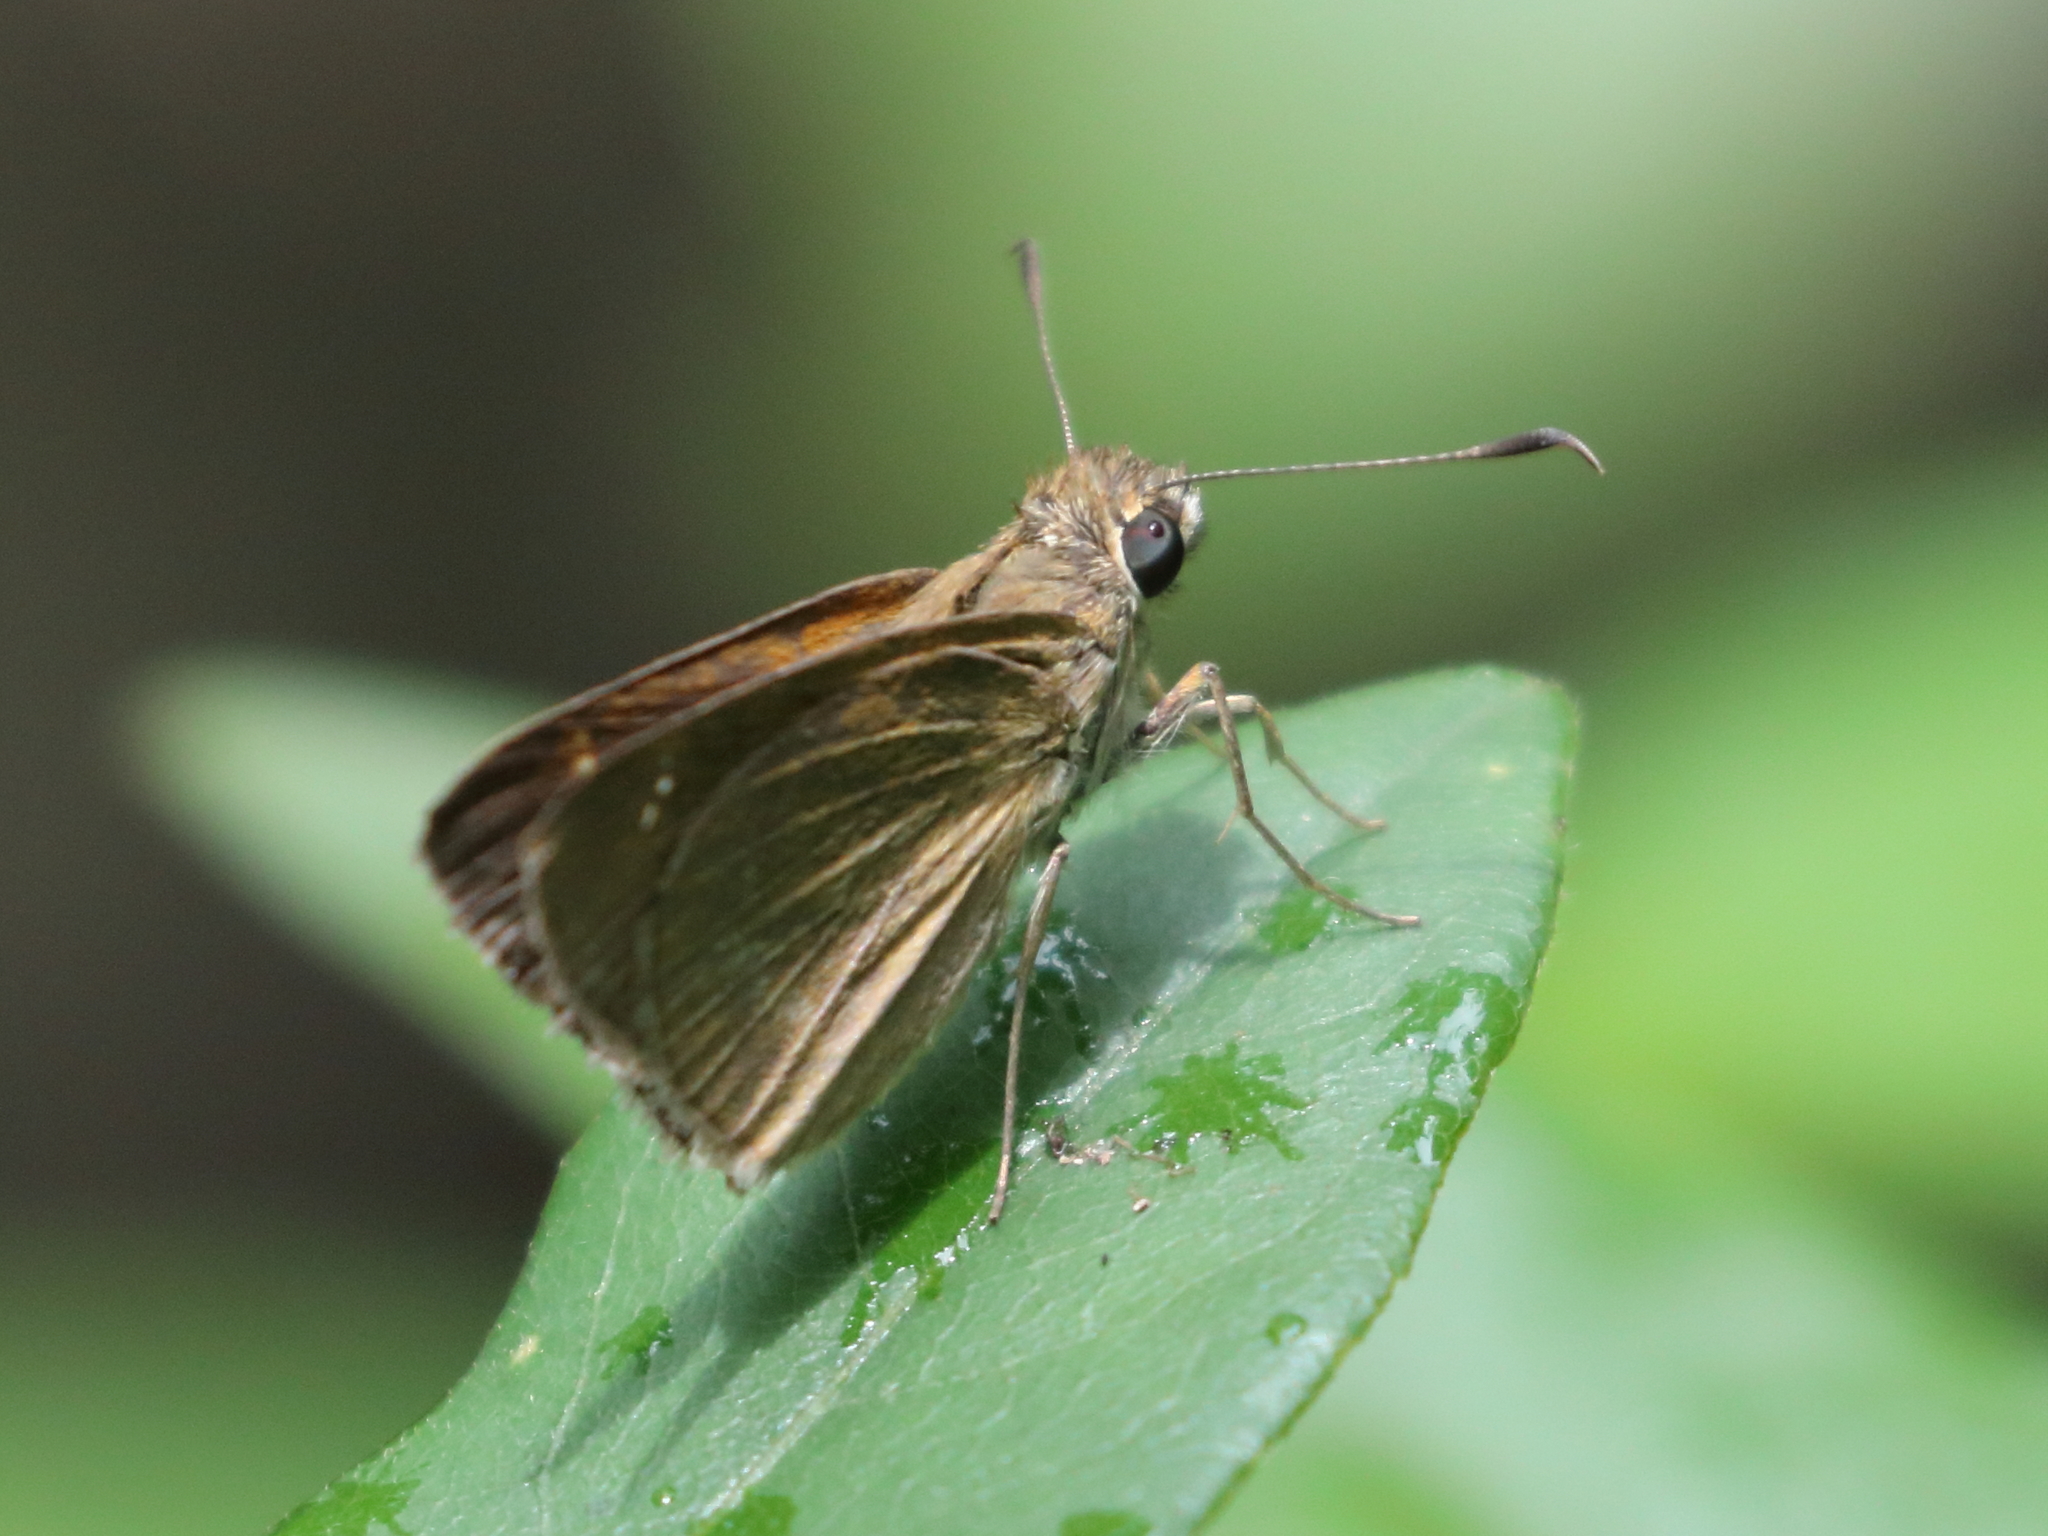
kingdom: Animalia
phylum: Arthropoda
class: Insecta
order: Lepidoptera
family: Hesperiidae
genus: Cymaenes
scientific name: Cymaenes tripunctus
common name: Dingy dotted skipper
